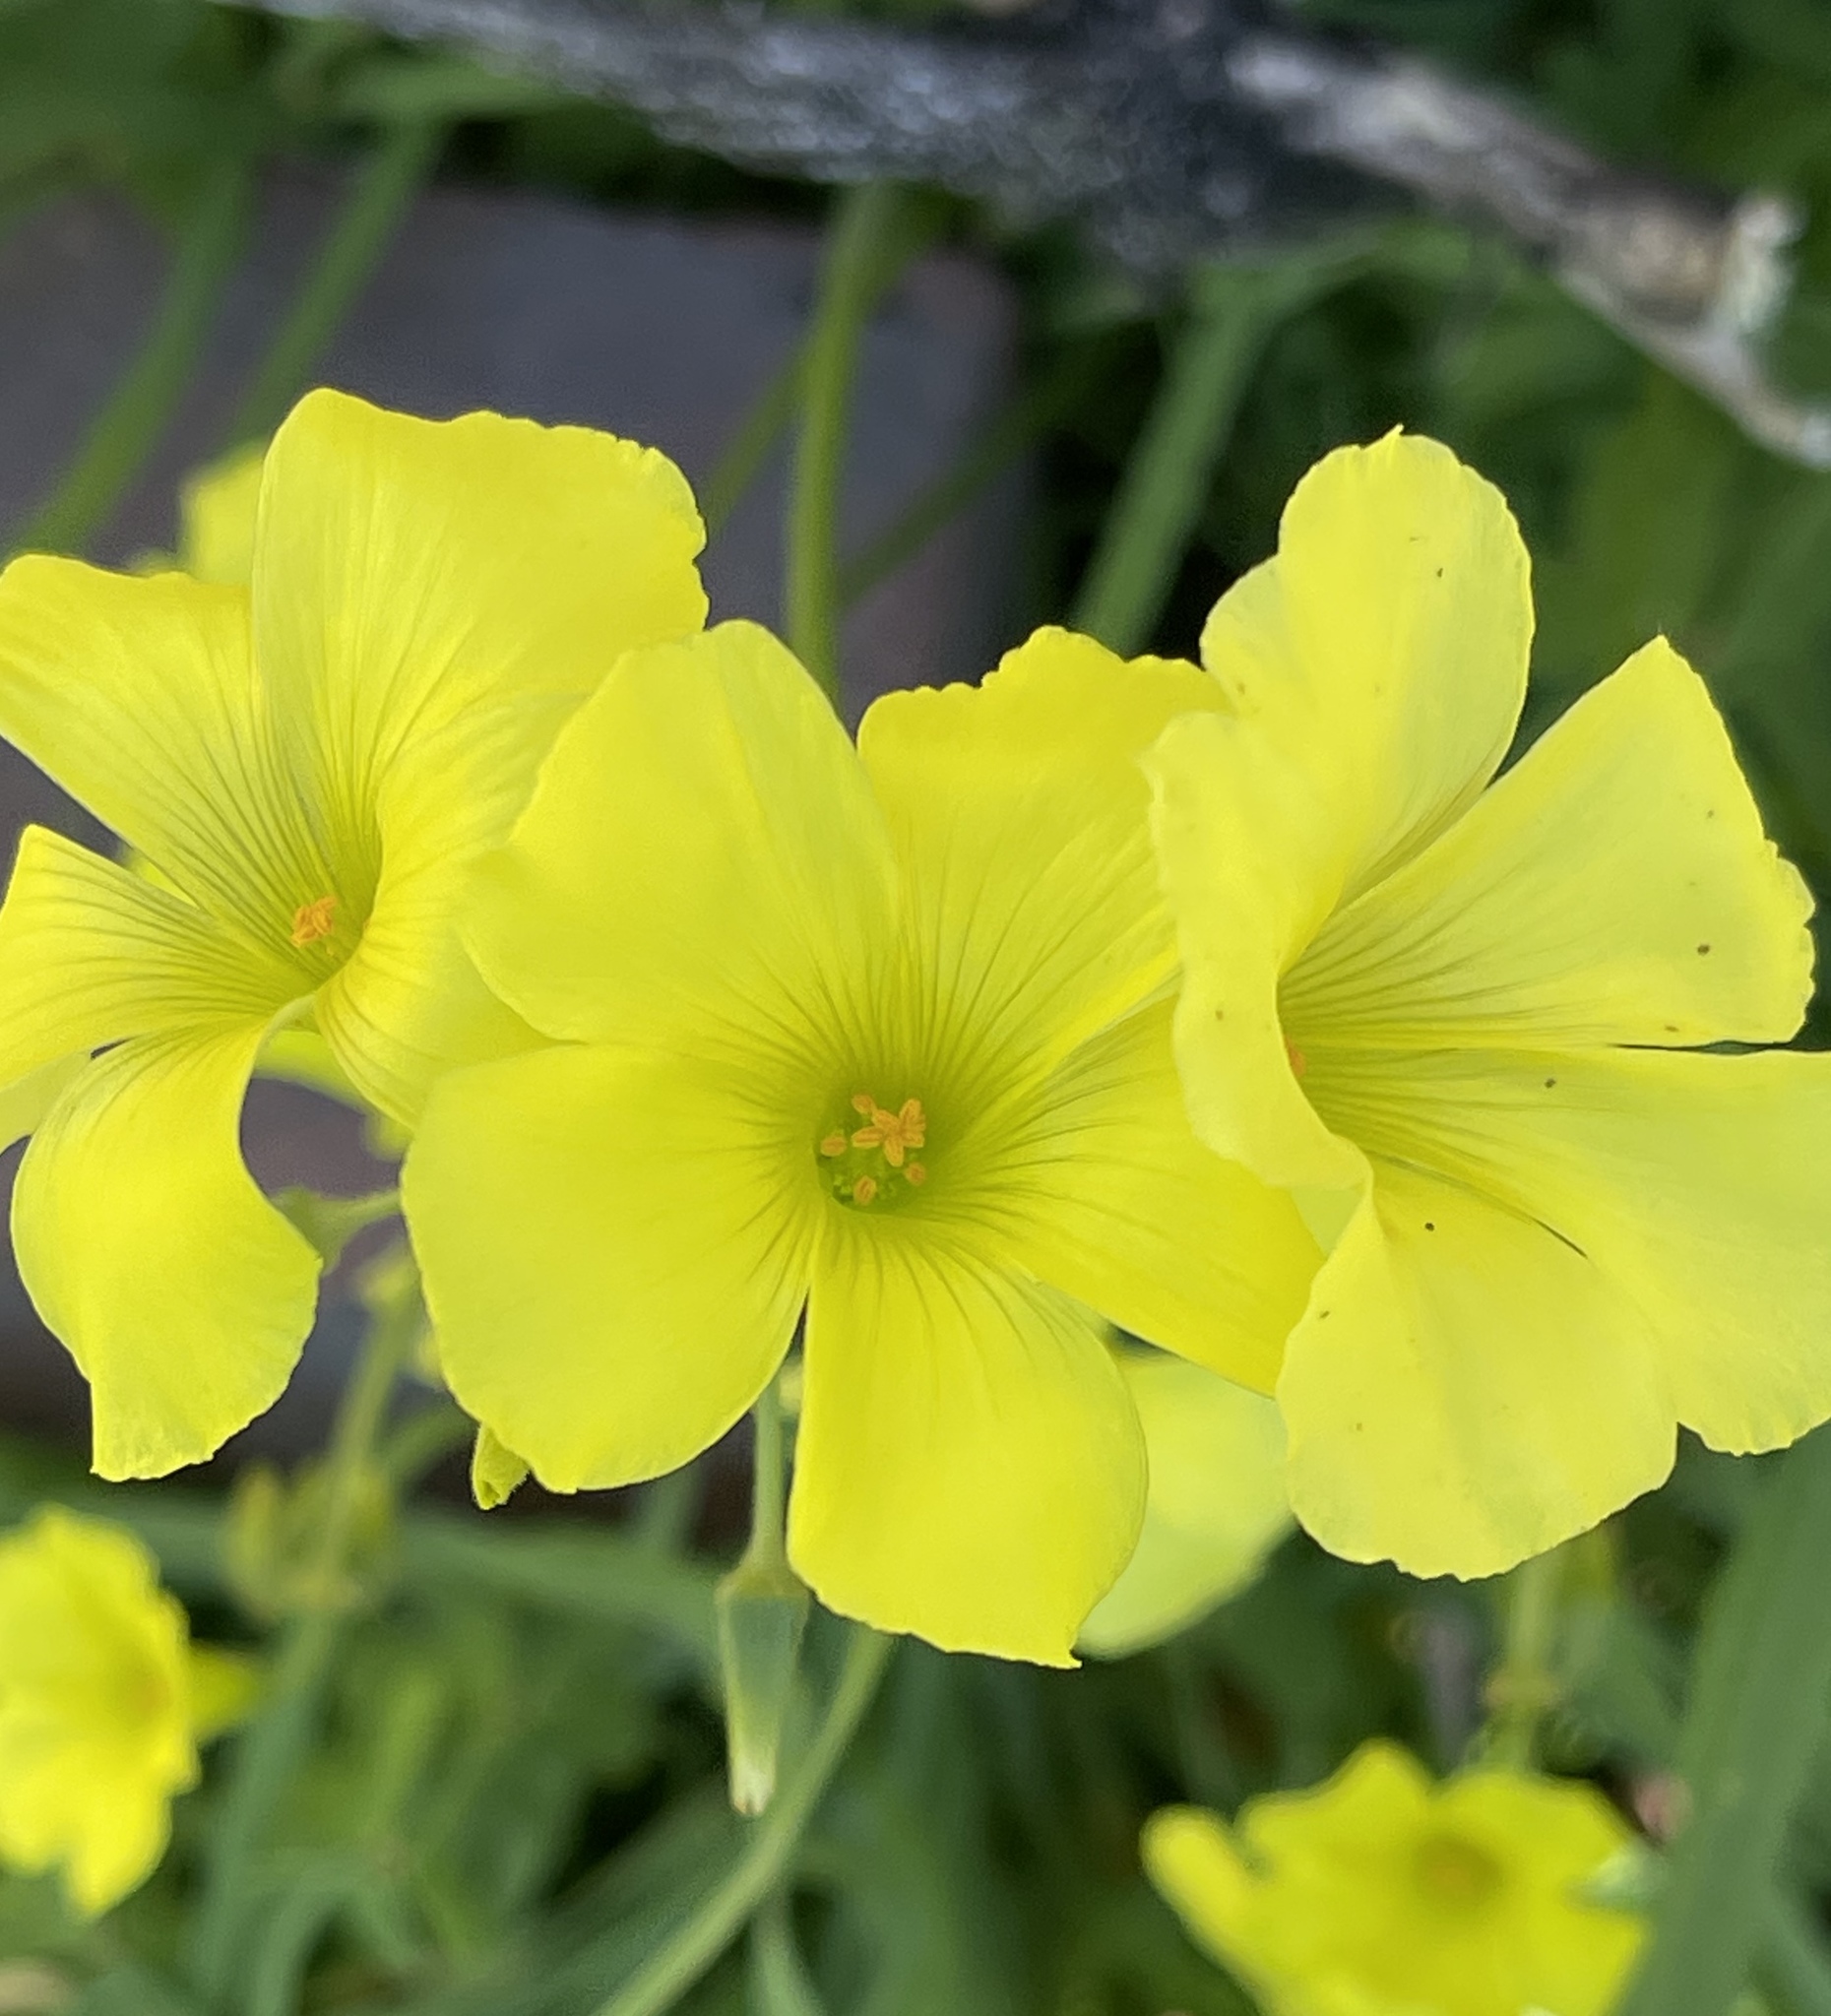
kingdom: Plantae
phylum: Tracheophyta
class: Magnoliopsida
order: Oxalidales
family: Oxalidaceae
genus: Oxalis
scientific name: Oxalis pes-caprae
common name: Bermuda-buttercup
